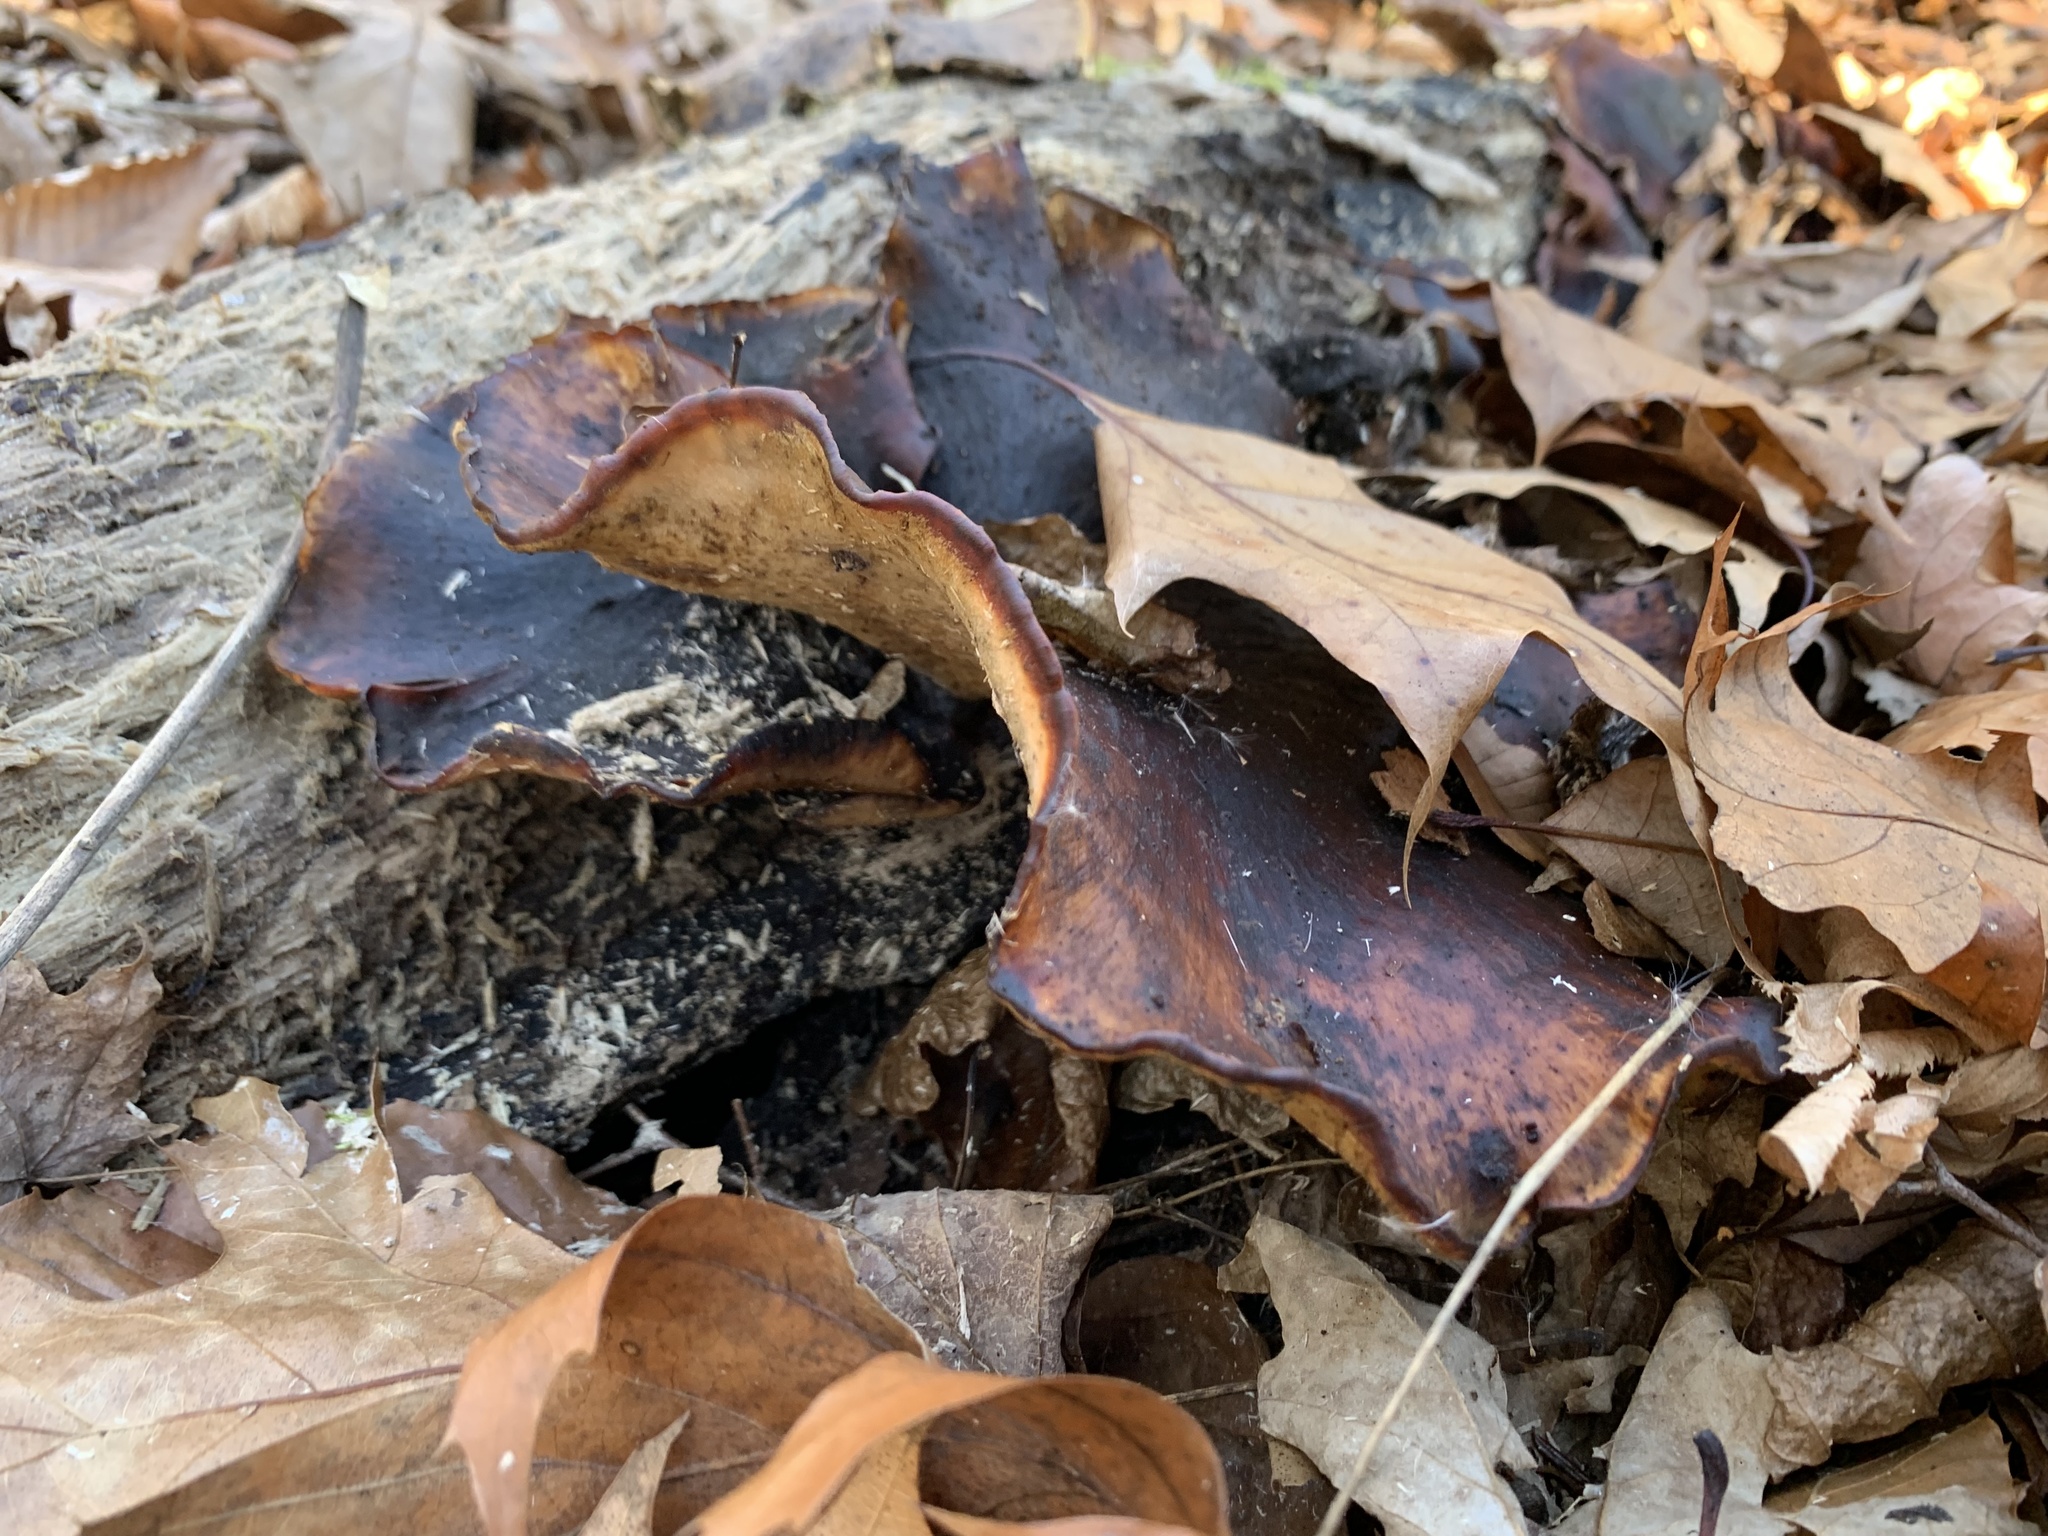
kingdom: Fungi
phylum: Basidiomycota
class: Agaricomycetes
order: Polyporales
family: Polyporaceae
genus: Picipes
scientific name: Picipes badius
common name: Bay polypore
